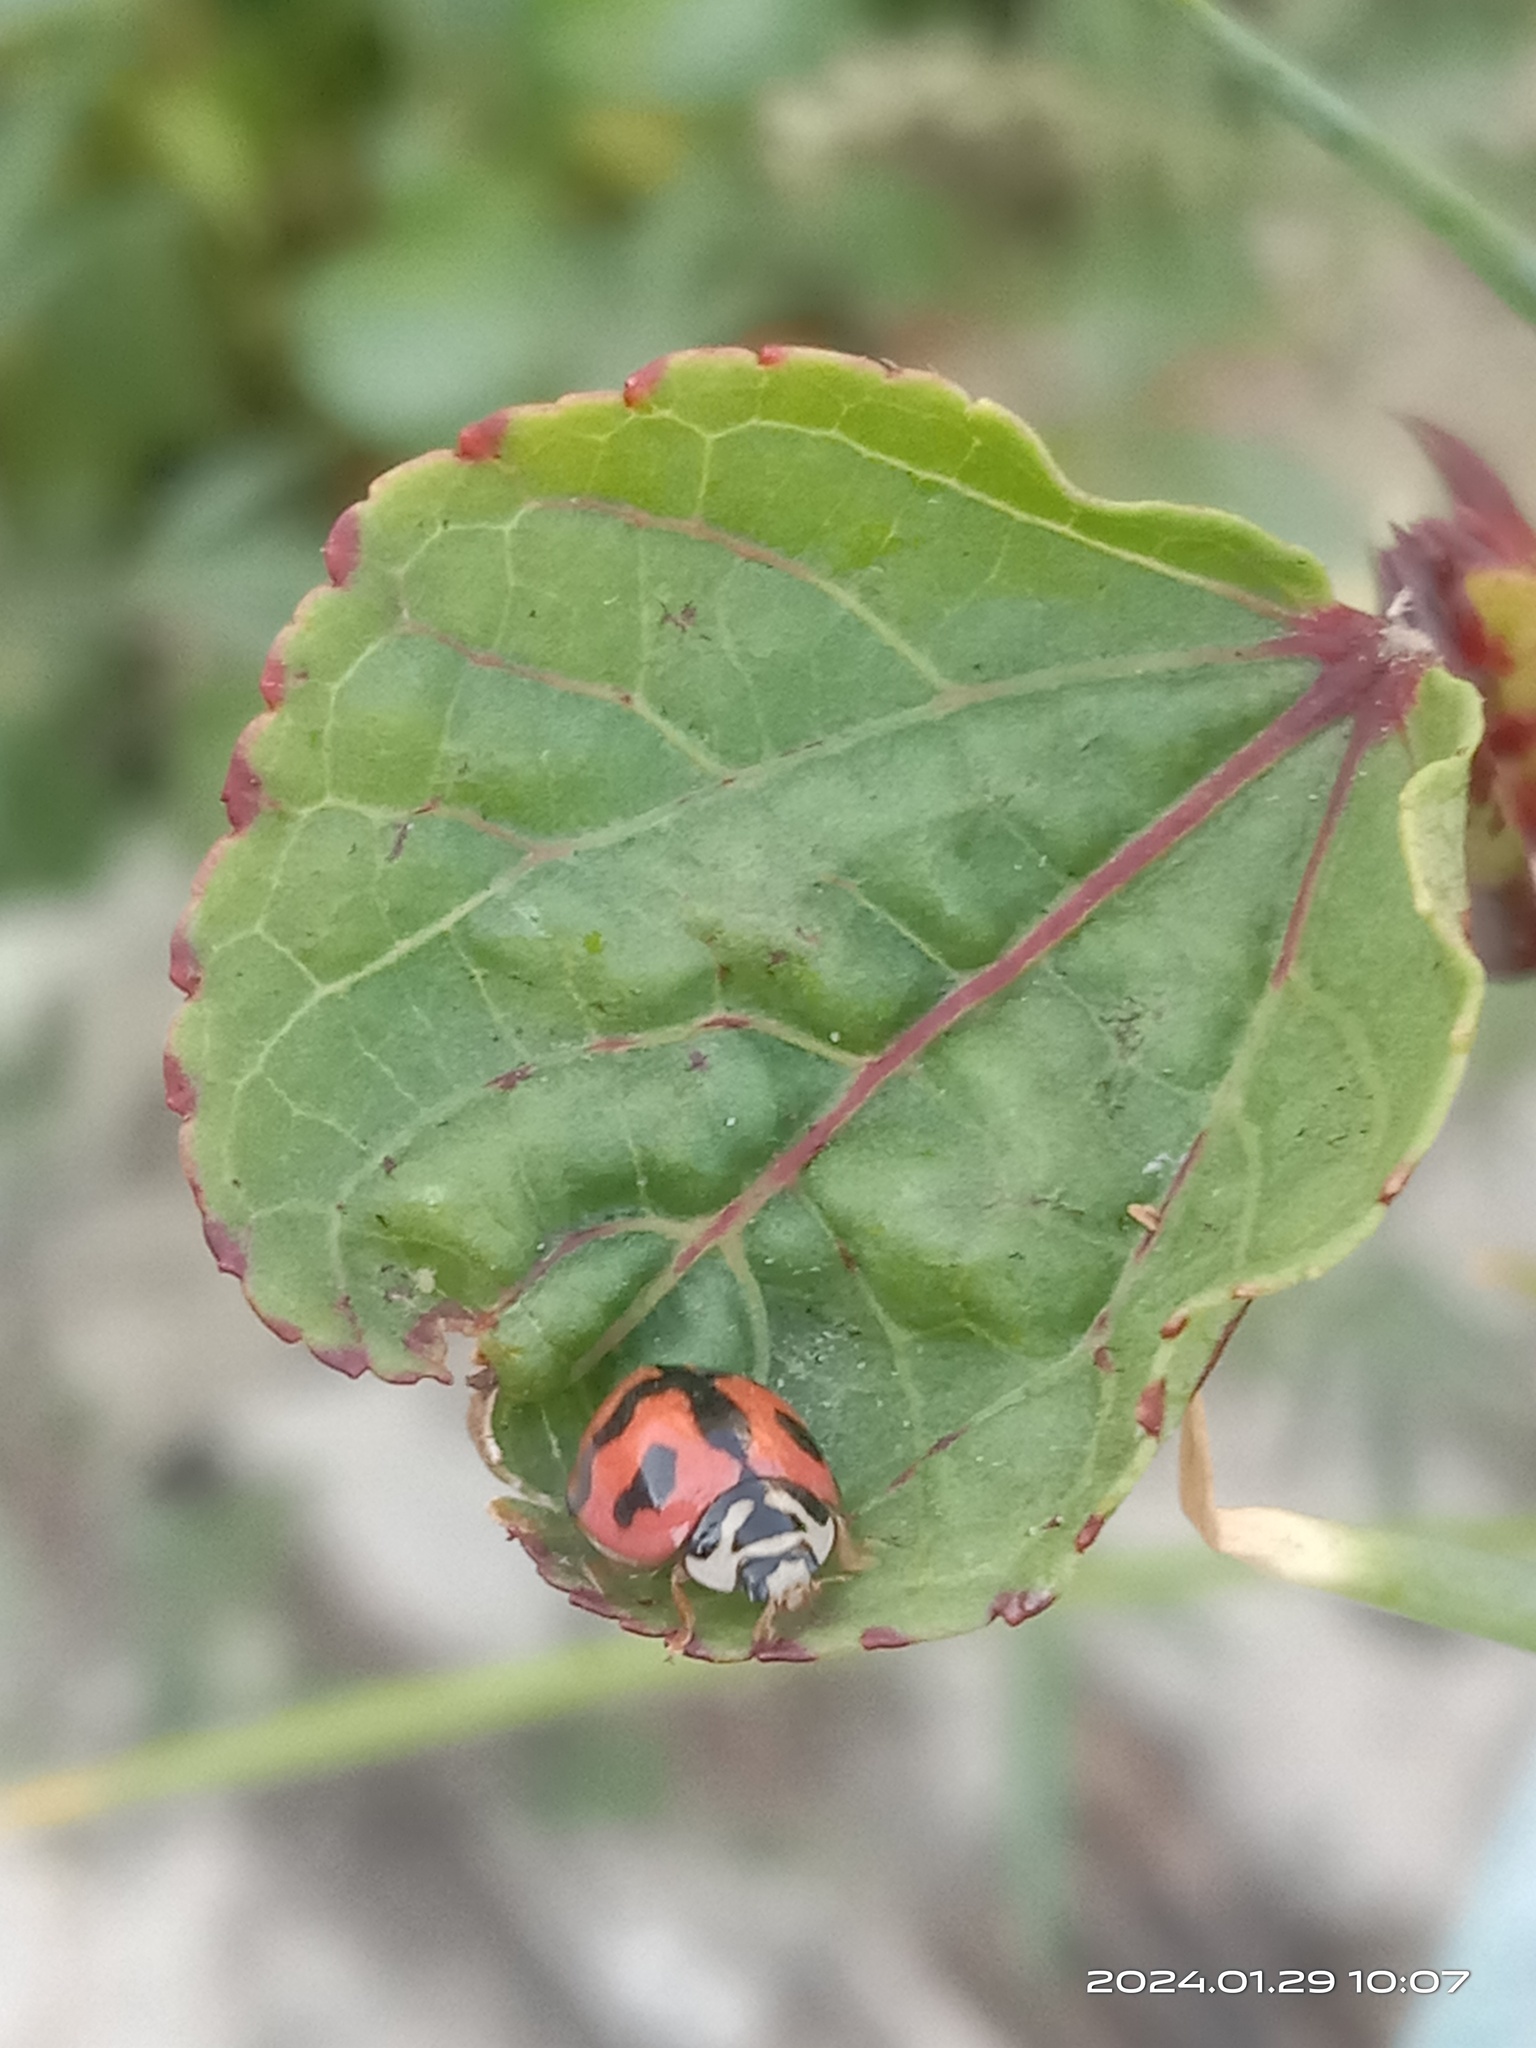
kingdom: Animalia
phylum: Arthropoda
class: Insecta
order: Coleoptera
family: Coccinellidae
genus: Cheilomenes
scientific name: Cheilomenes sexmaculata
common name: Ladybird beetle
